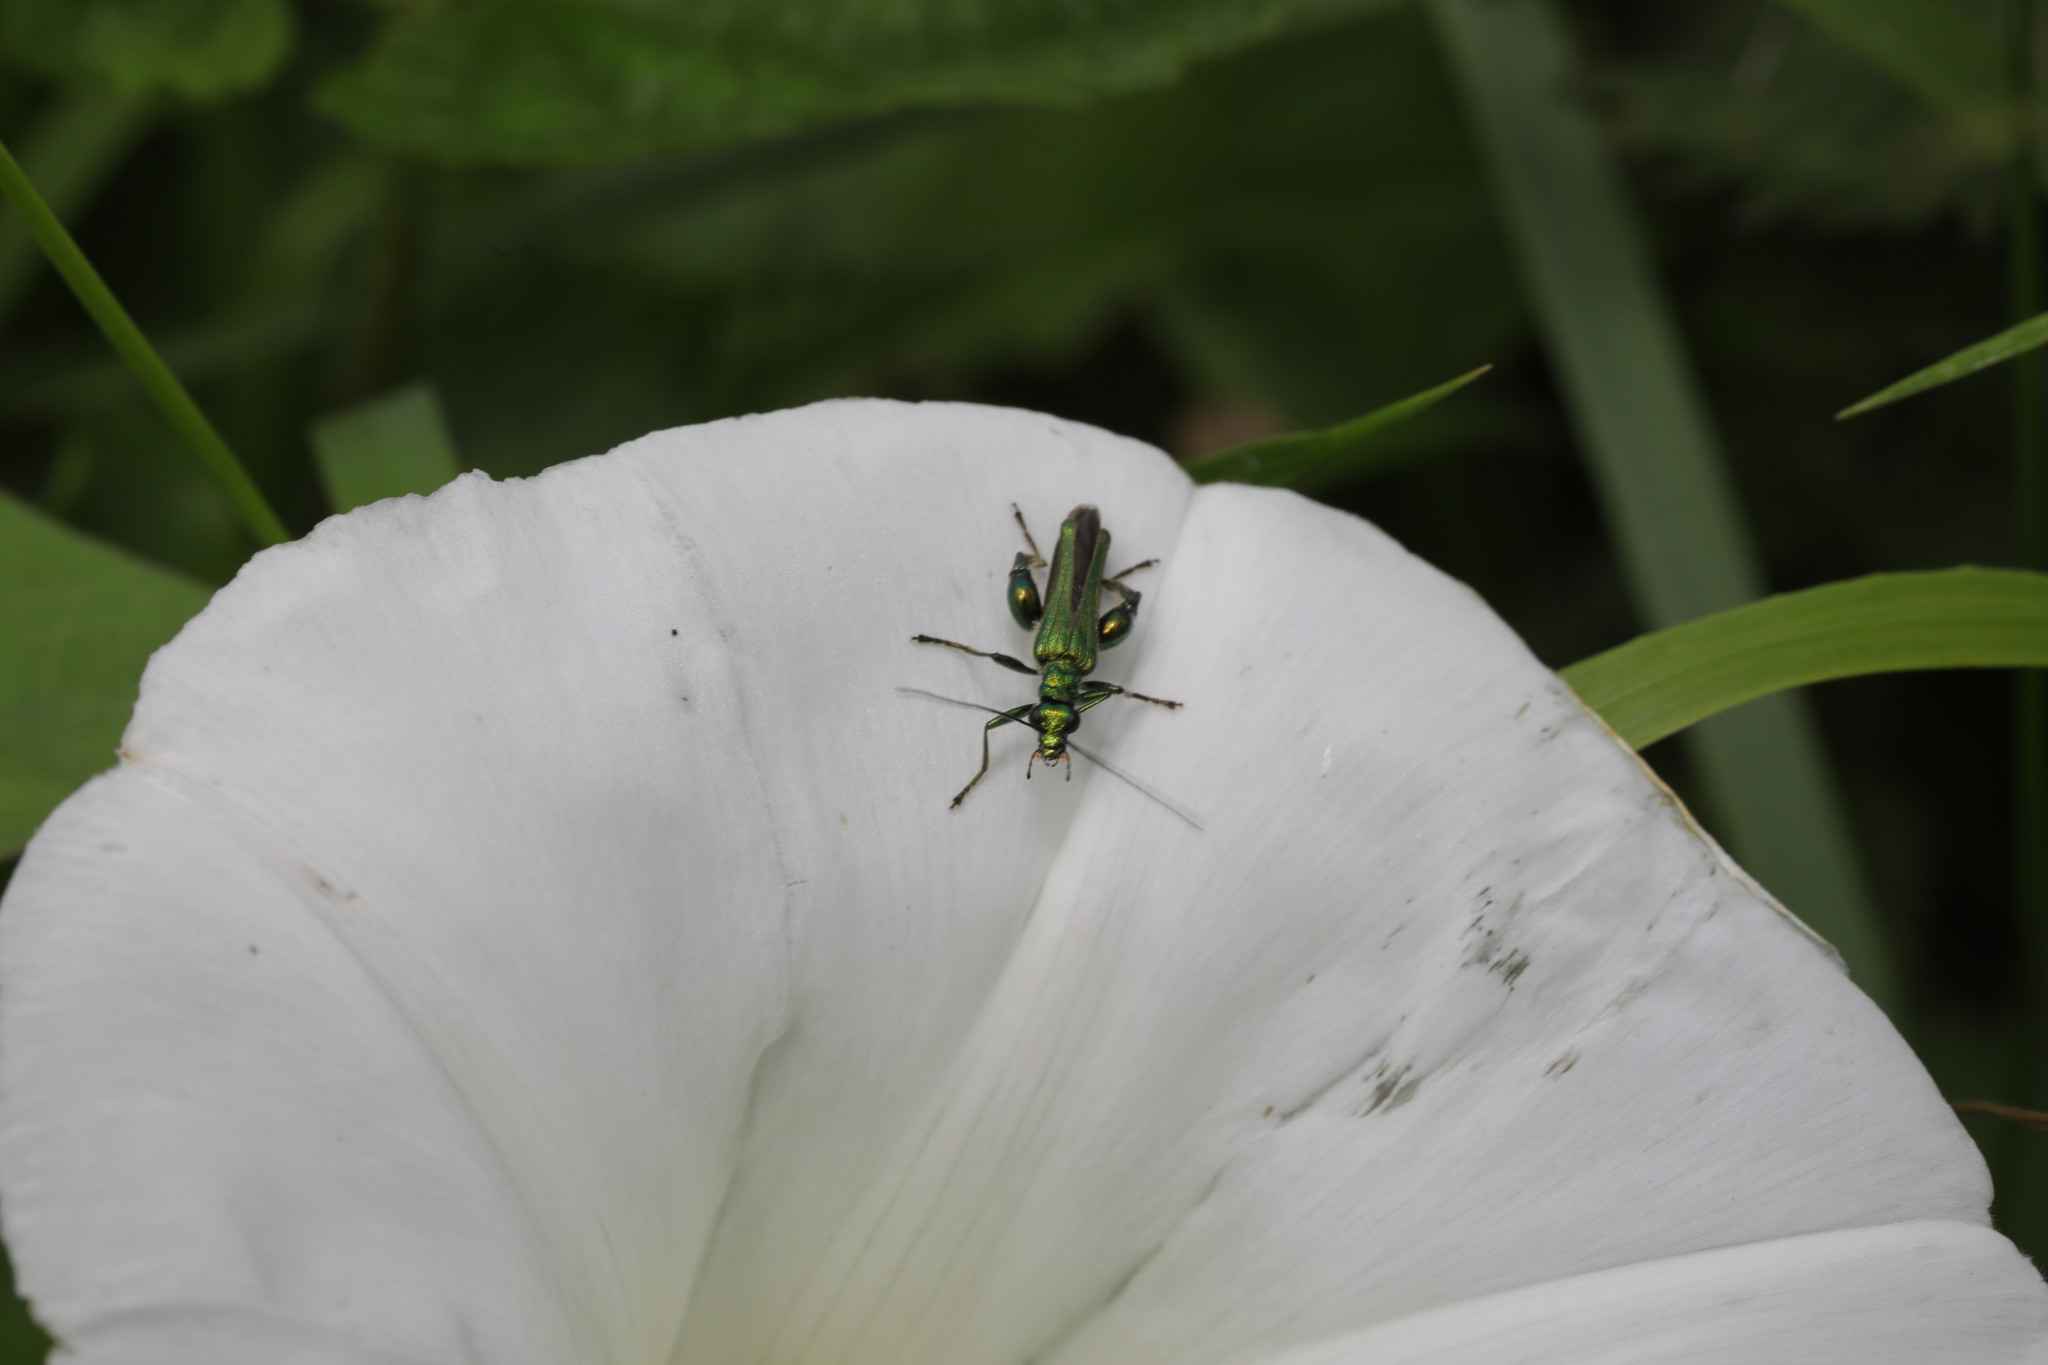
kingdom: Animalia
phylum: Arthropoda
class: Insecta
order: Coleoptera
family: Oedemeridae
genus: Oedemera
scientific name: Oedemera nobilis
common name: Swollen-thighed beetle
